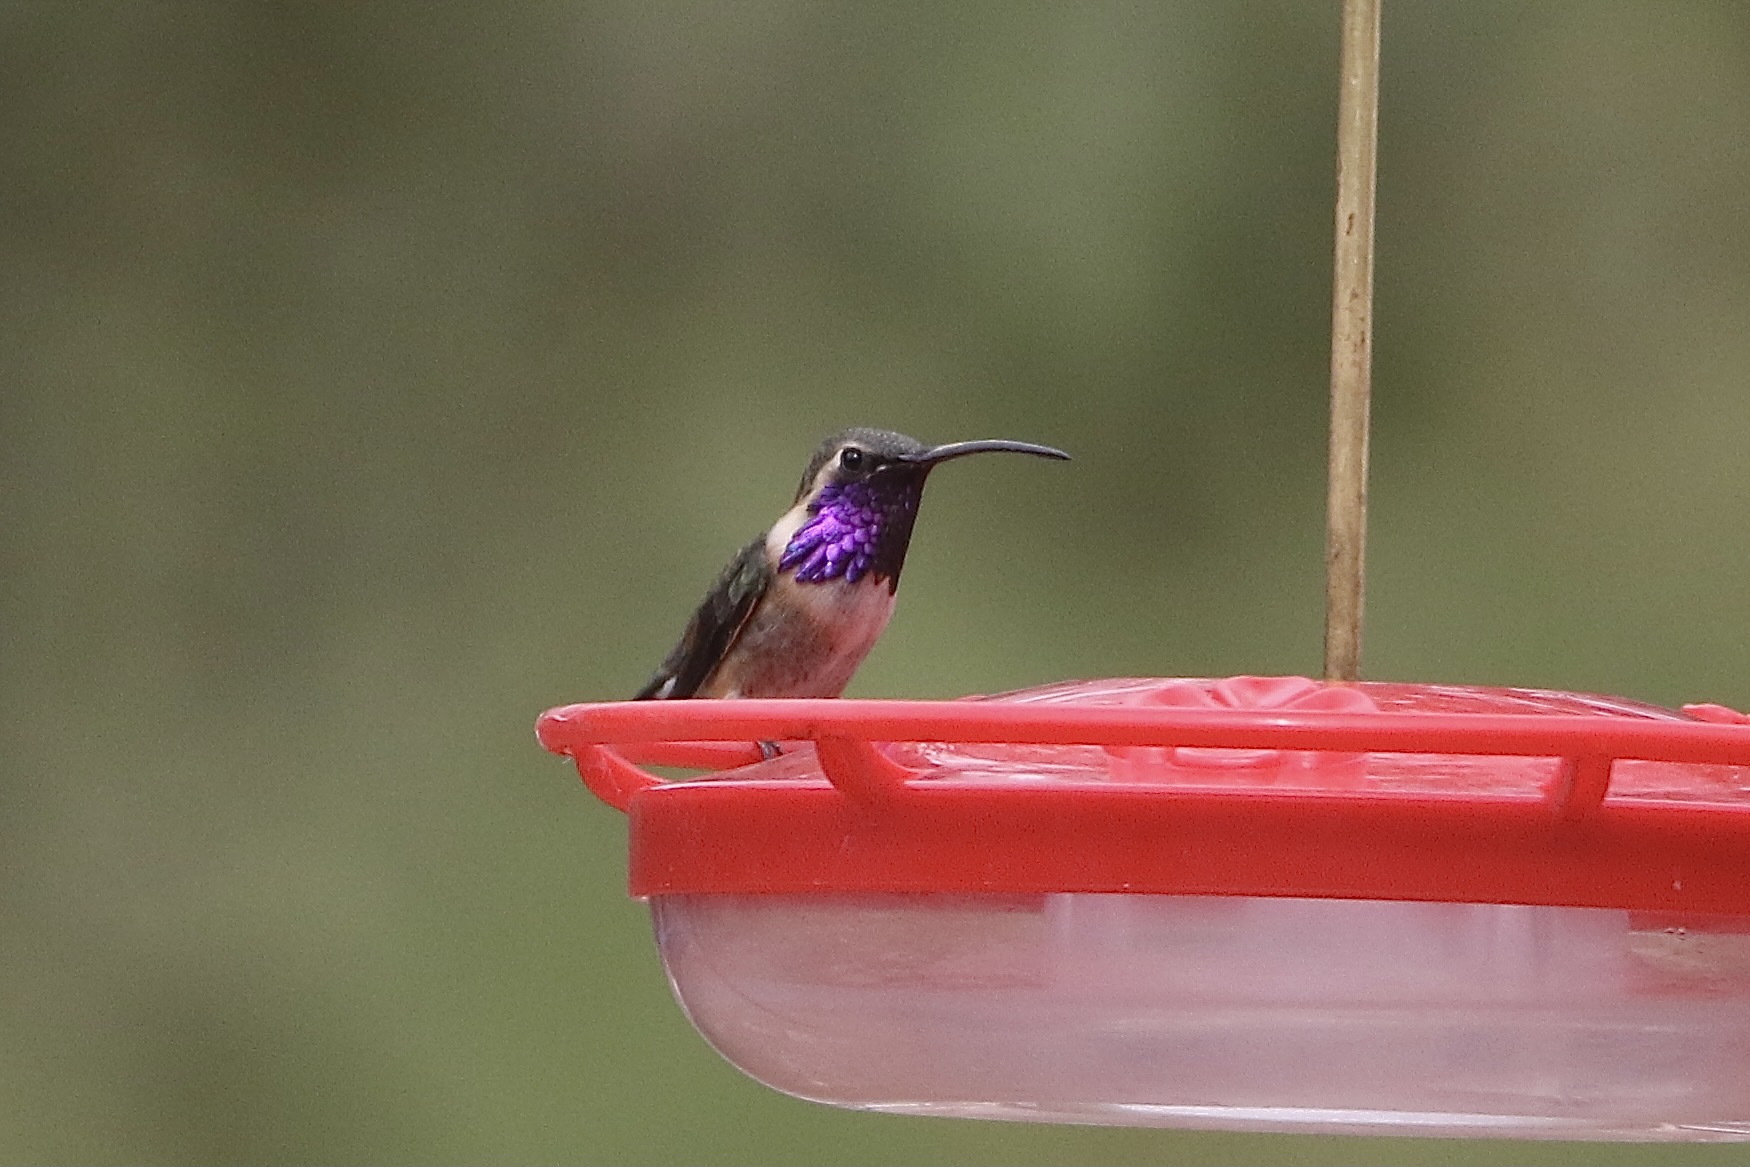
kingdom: Animalia
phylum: Chordata
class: Aves
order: Apodiformes
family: Trochilidae
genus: Calothorax
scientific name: Calothorax lucifer
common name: Lucifer sheartail
